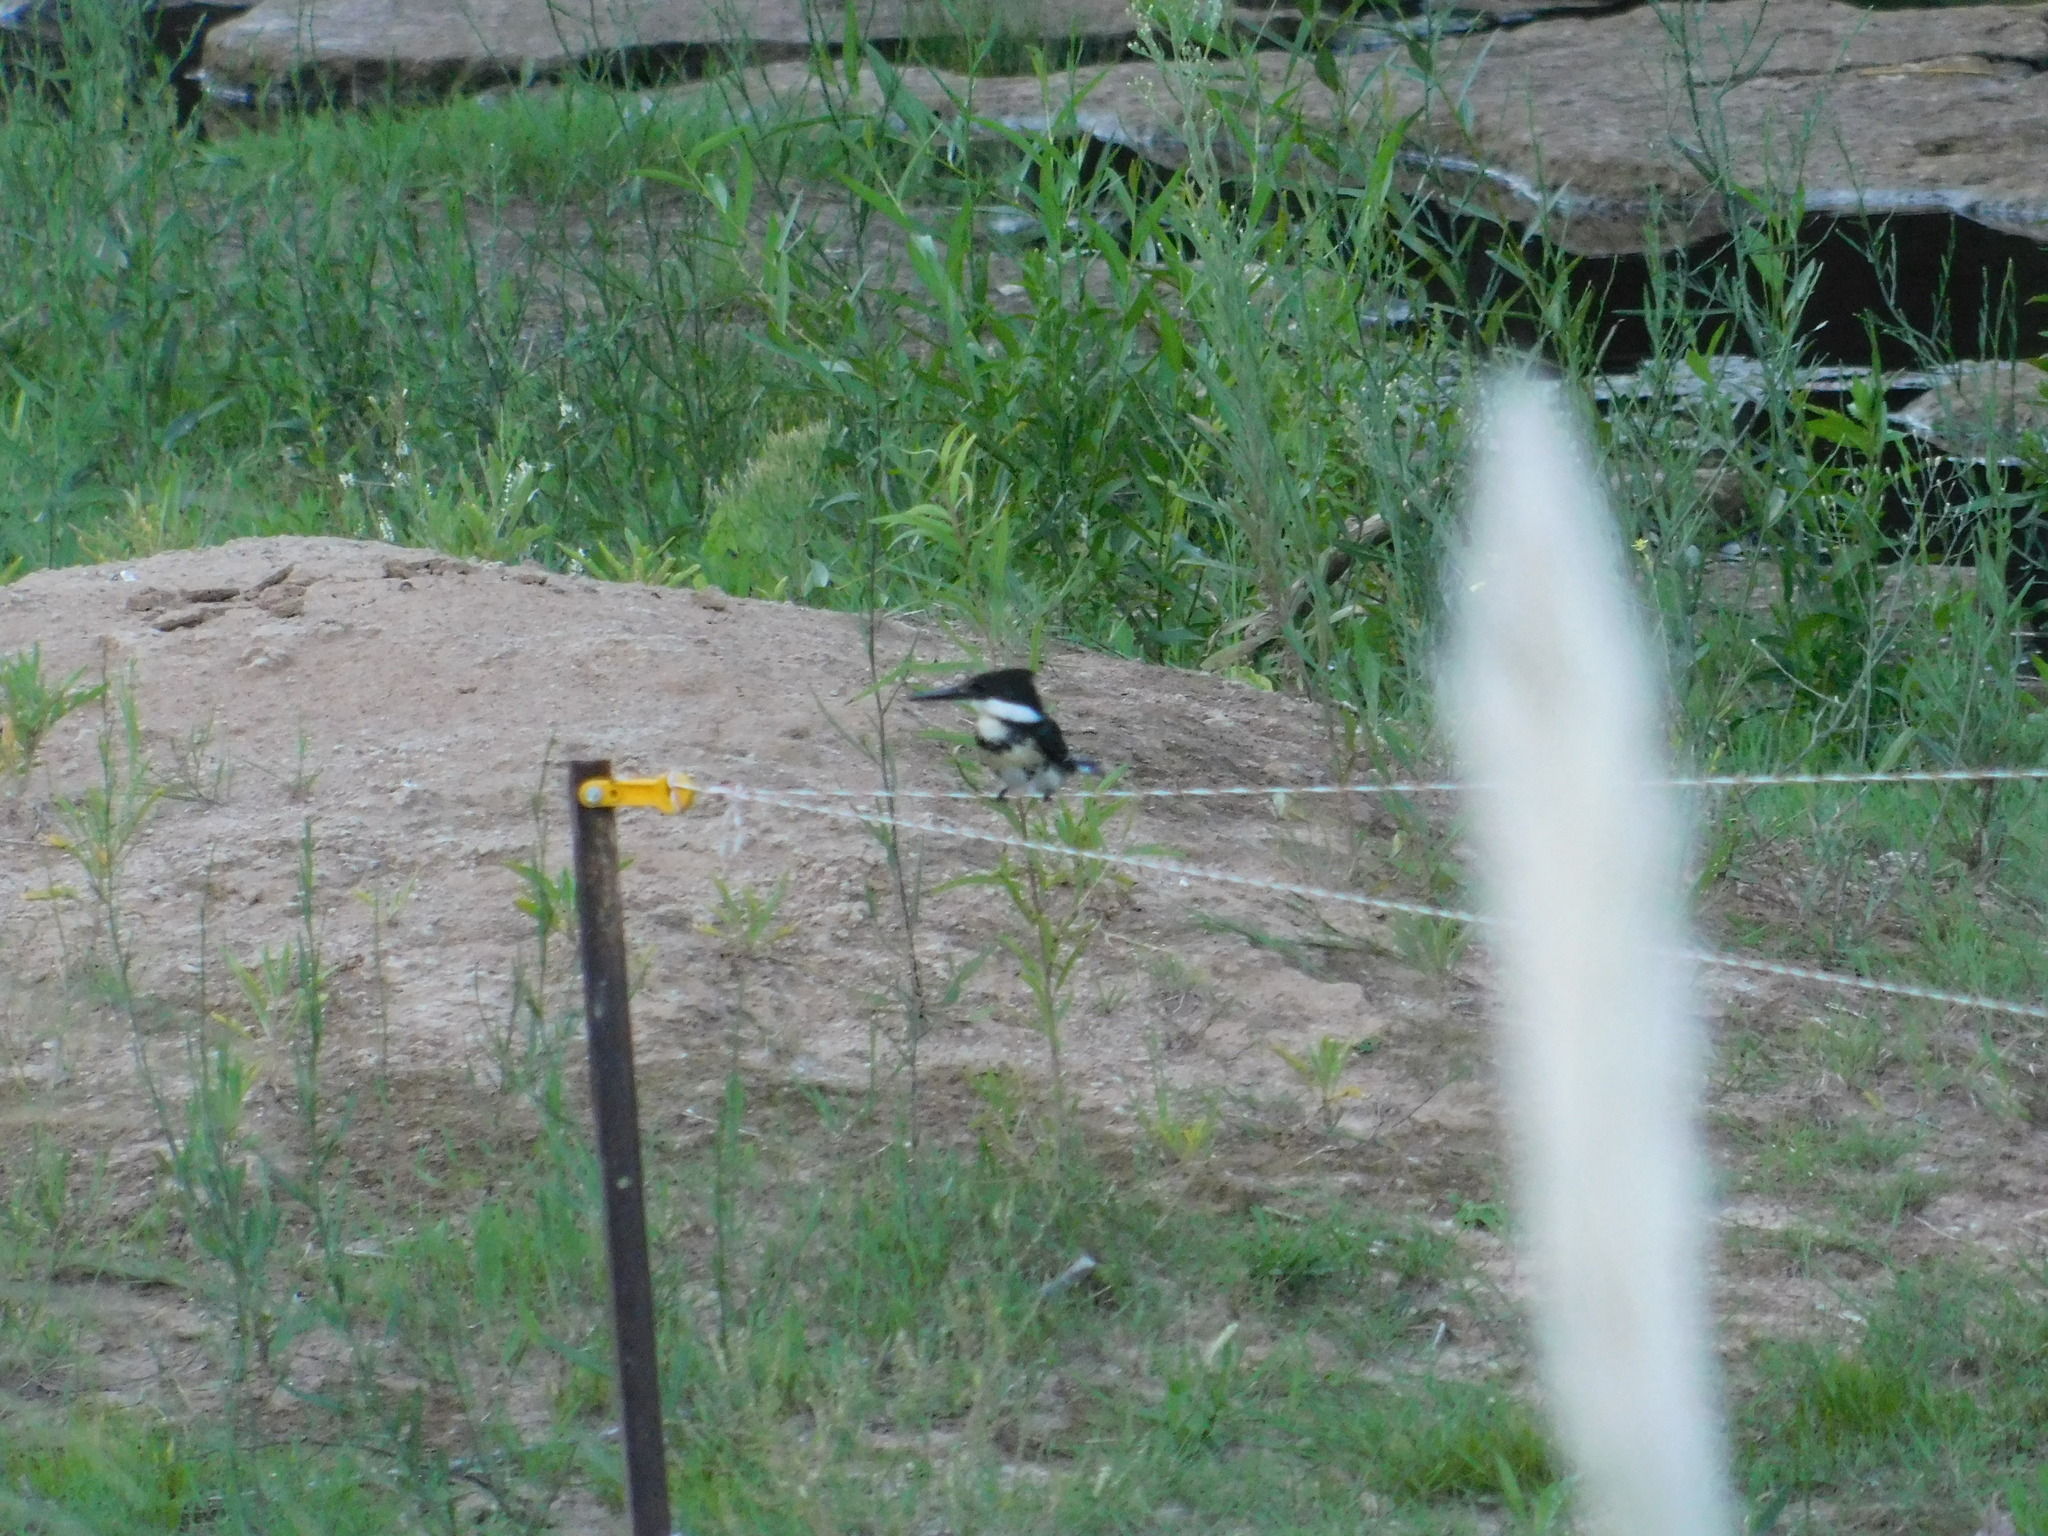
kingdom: Animalia
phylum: Chordata
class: Aves
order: Coraciiformes
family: Alcedinidae
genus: Chloroceryle
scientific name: Chloroceryle americana
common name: Green kingfisher
